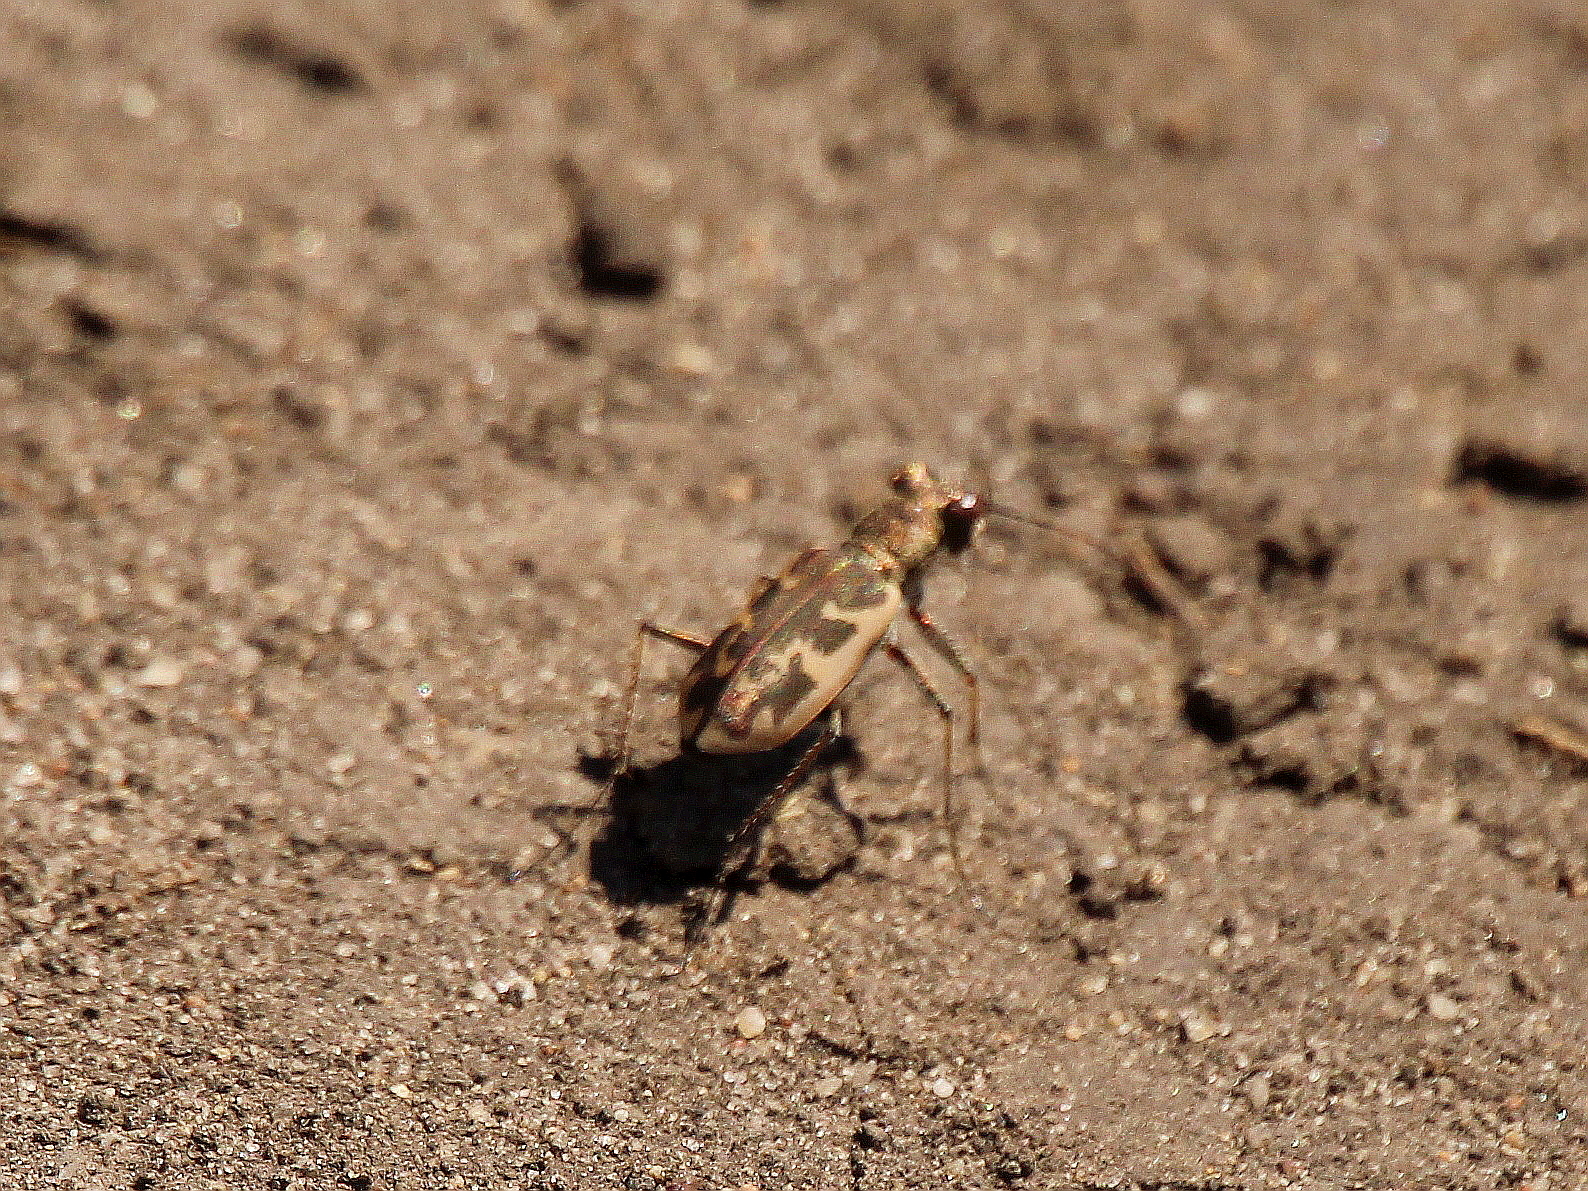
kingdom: Animalia
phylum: Arthropoda
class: Insecta
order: Coleoptera
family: Carabidae
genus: Cephalota
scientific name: Cephalota chiloleuca
